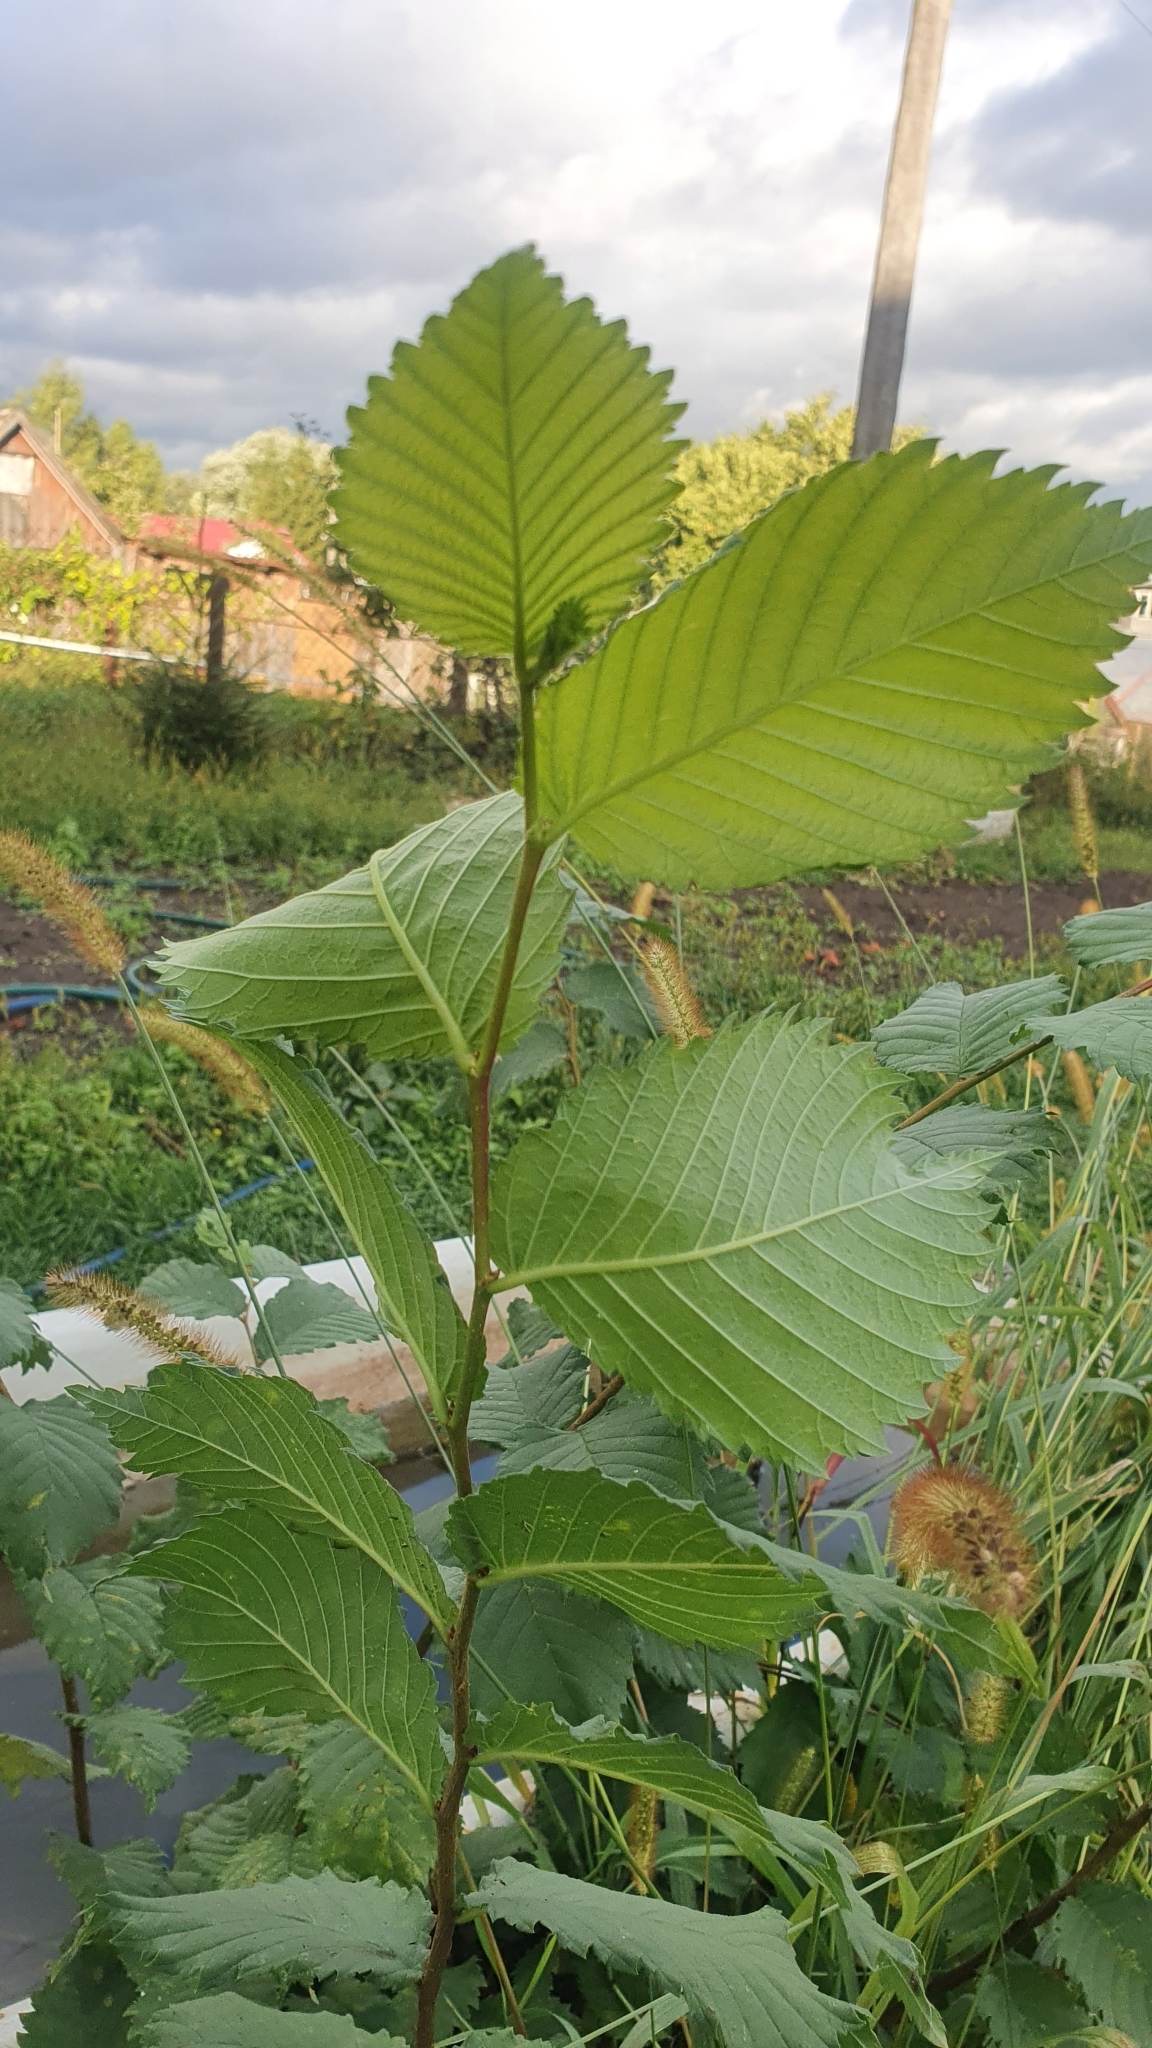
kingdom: Plantae
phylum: Tracheophyta
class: Magnoliopsida
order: Rosales
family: Ulmaceae
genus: Ulmus
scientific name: Ulmus laevis
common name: European white-elm
